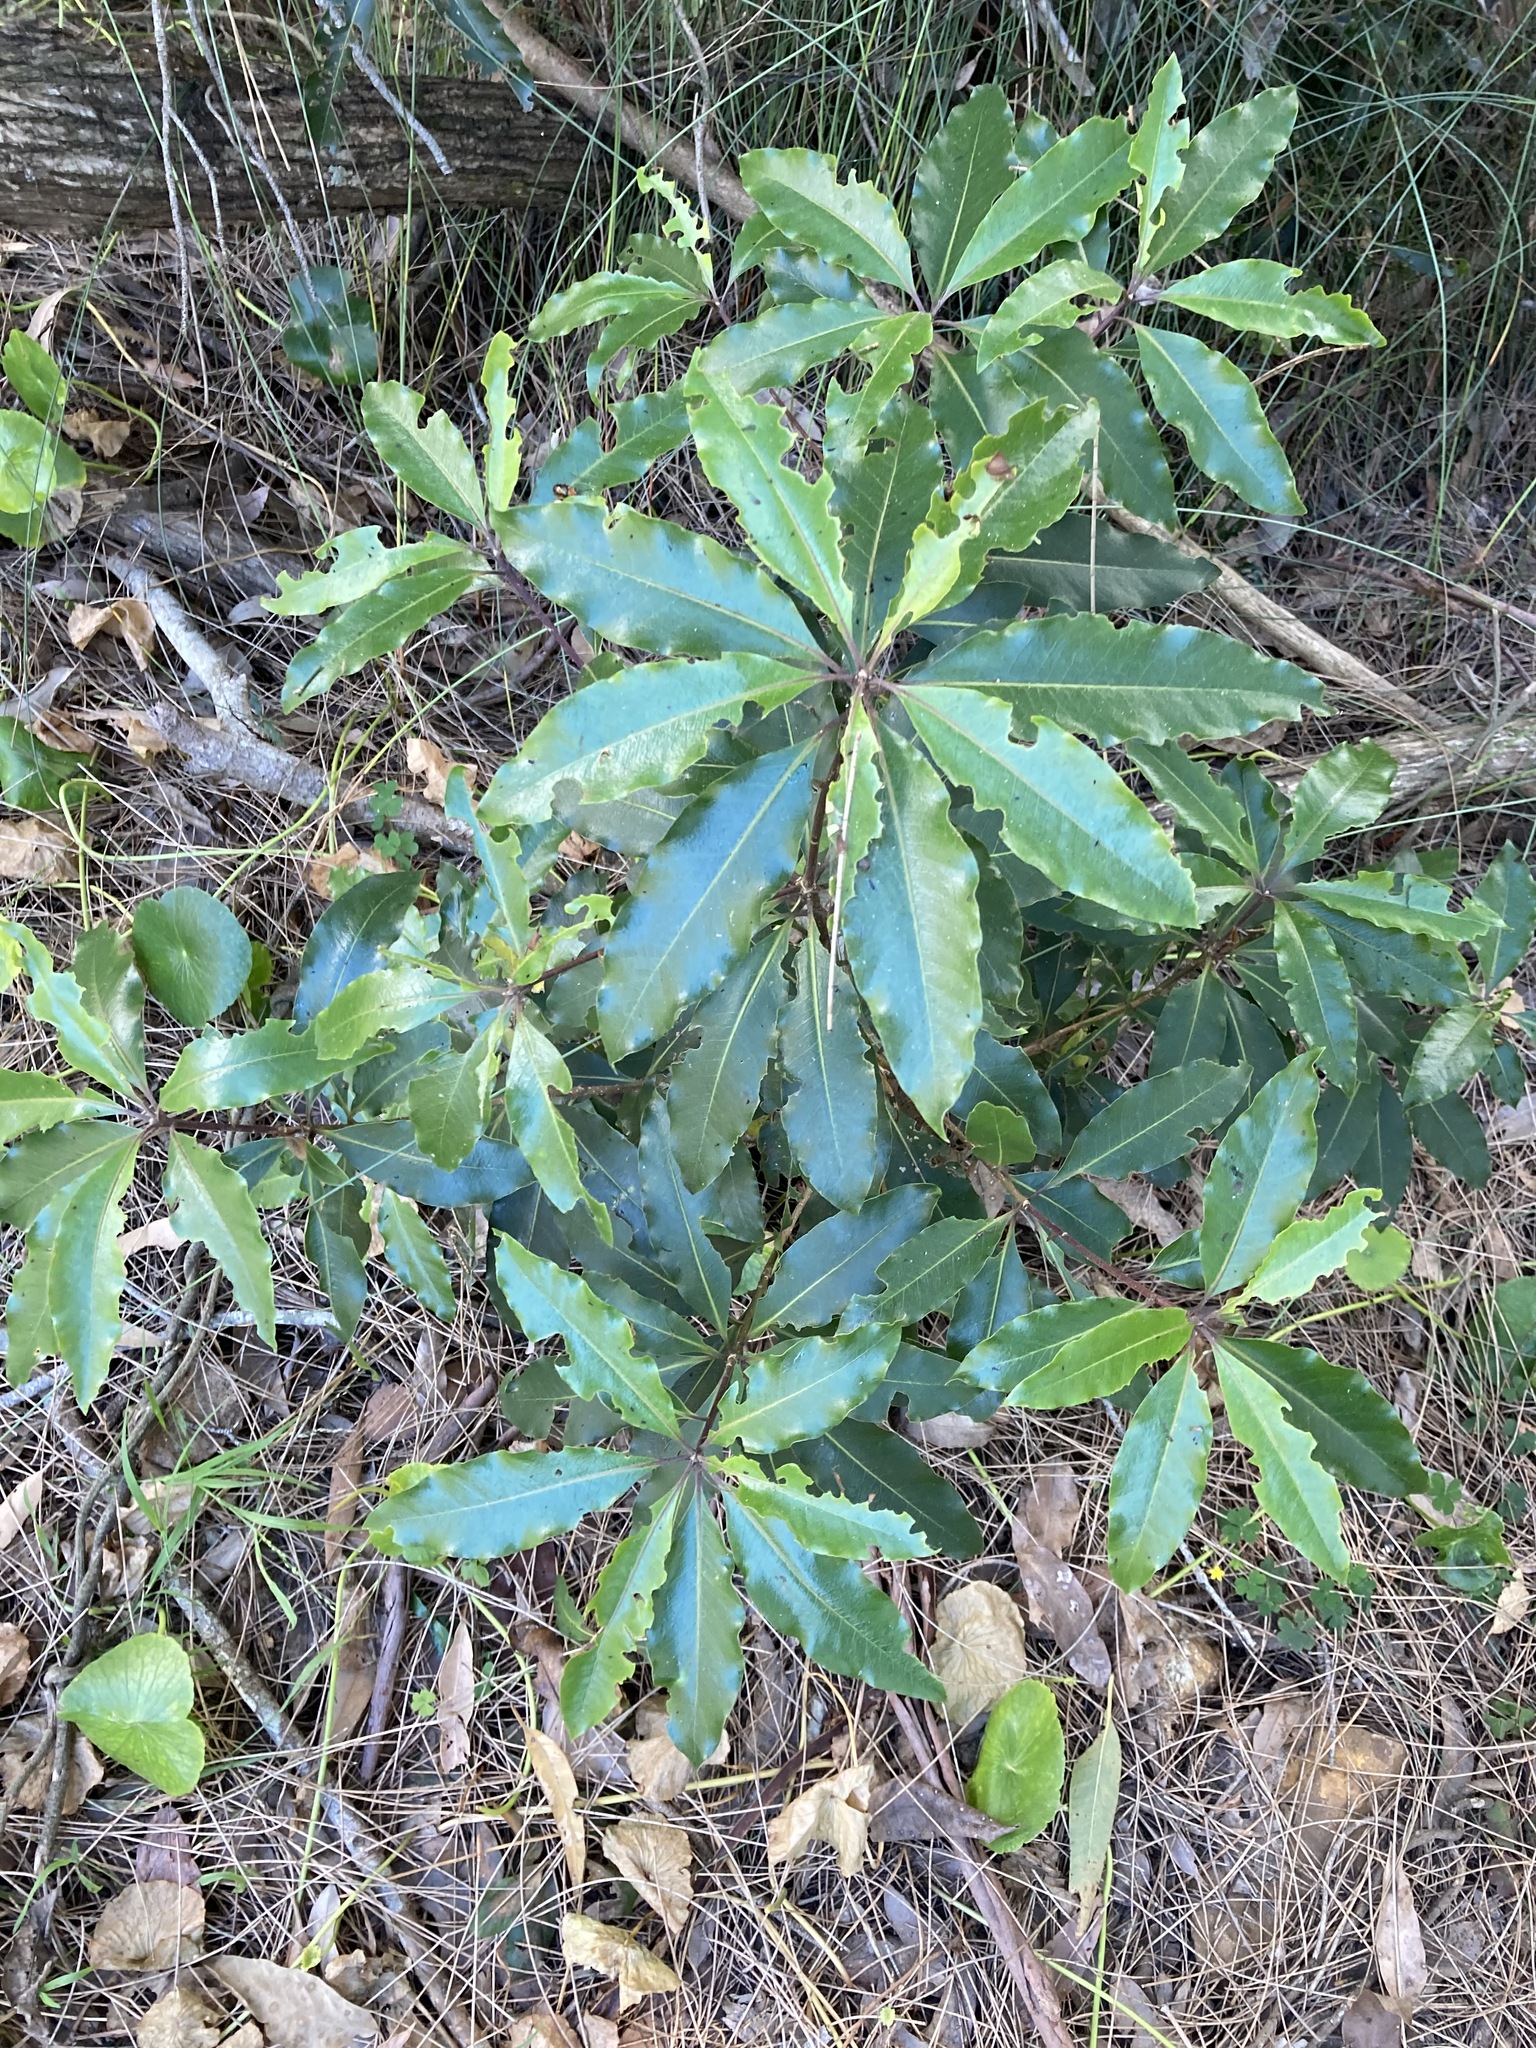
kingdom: Plantae
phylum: Tracheophyta
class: Magnoliopsida
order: Apiales
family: Pittosporaceae
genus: Pittosporum
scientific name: Pittosporum undulatum
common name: Australian cheesewood
